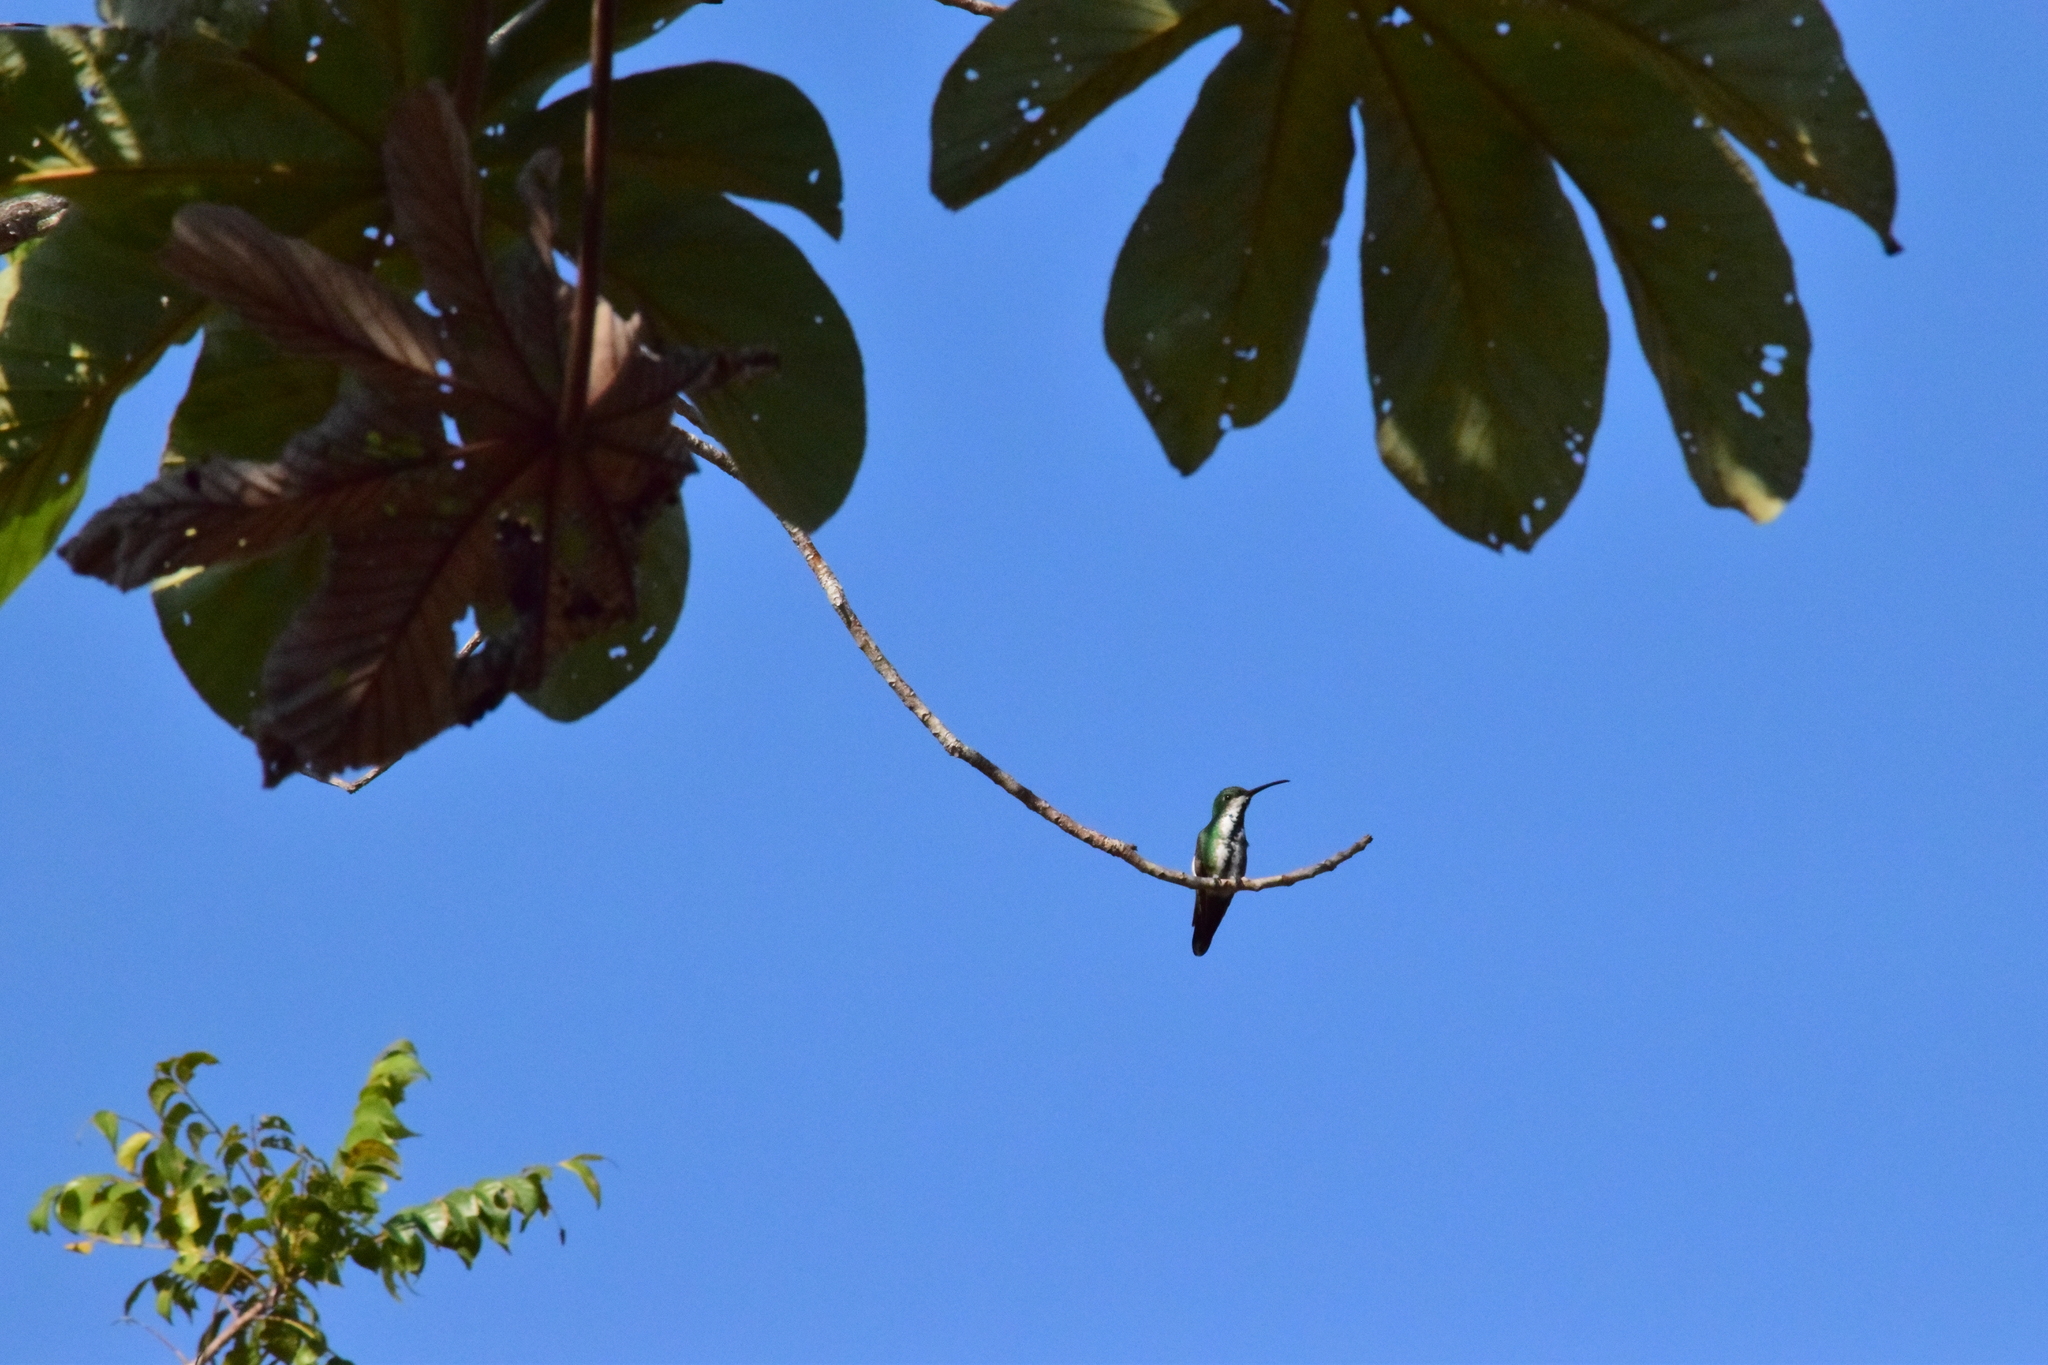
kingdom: Animalia
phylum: Chordata
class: Aves
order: Apodiformes
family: Trochilidae
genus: Anthracothorax
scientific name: Anthracothorax prevostii
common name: Green-breasted mango
